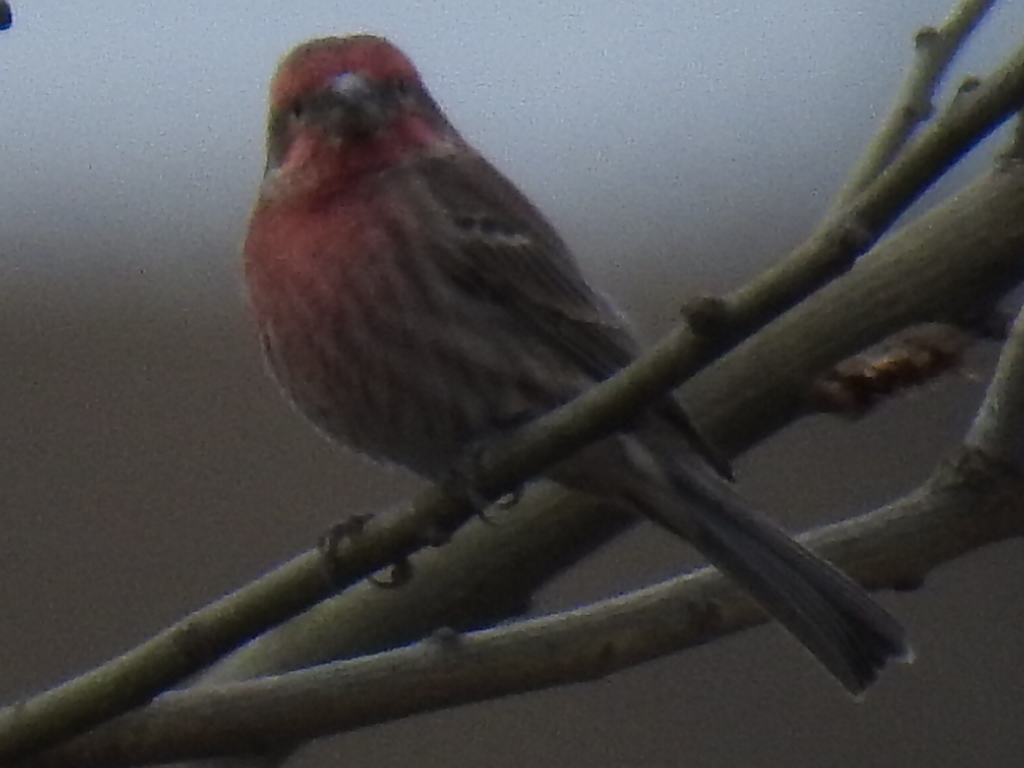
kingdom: Animalia
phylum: Chordata
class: Aves
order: Passeriformes
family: Fringillidae
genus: Haemorhous
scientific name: Haemorhous mexicanus
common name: House finch
